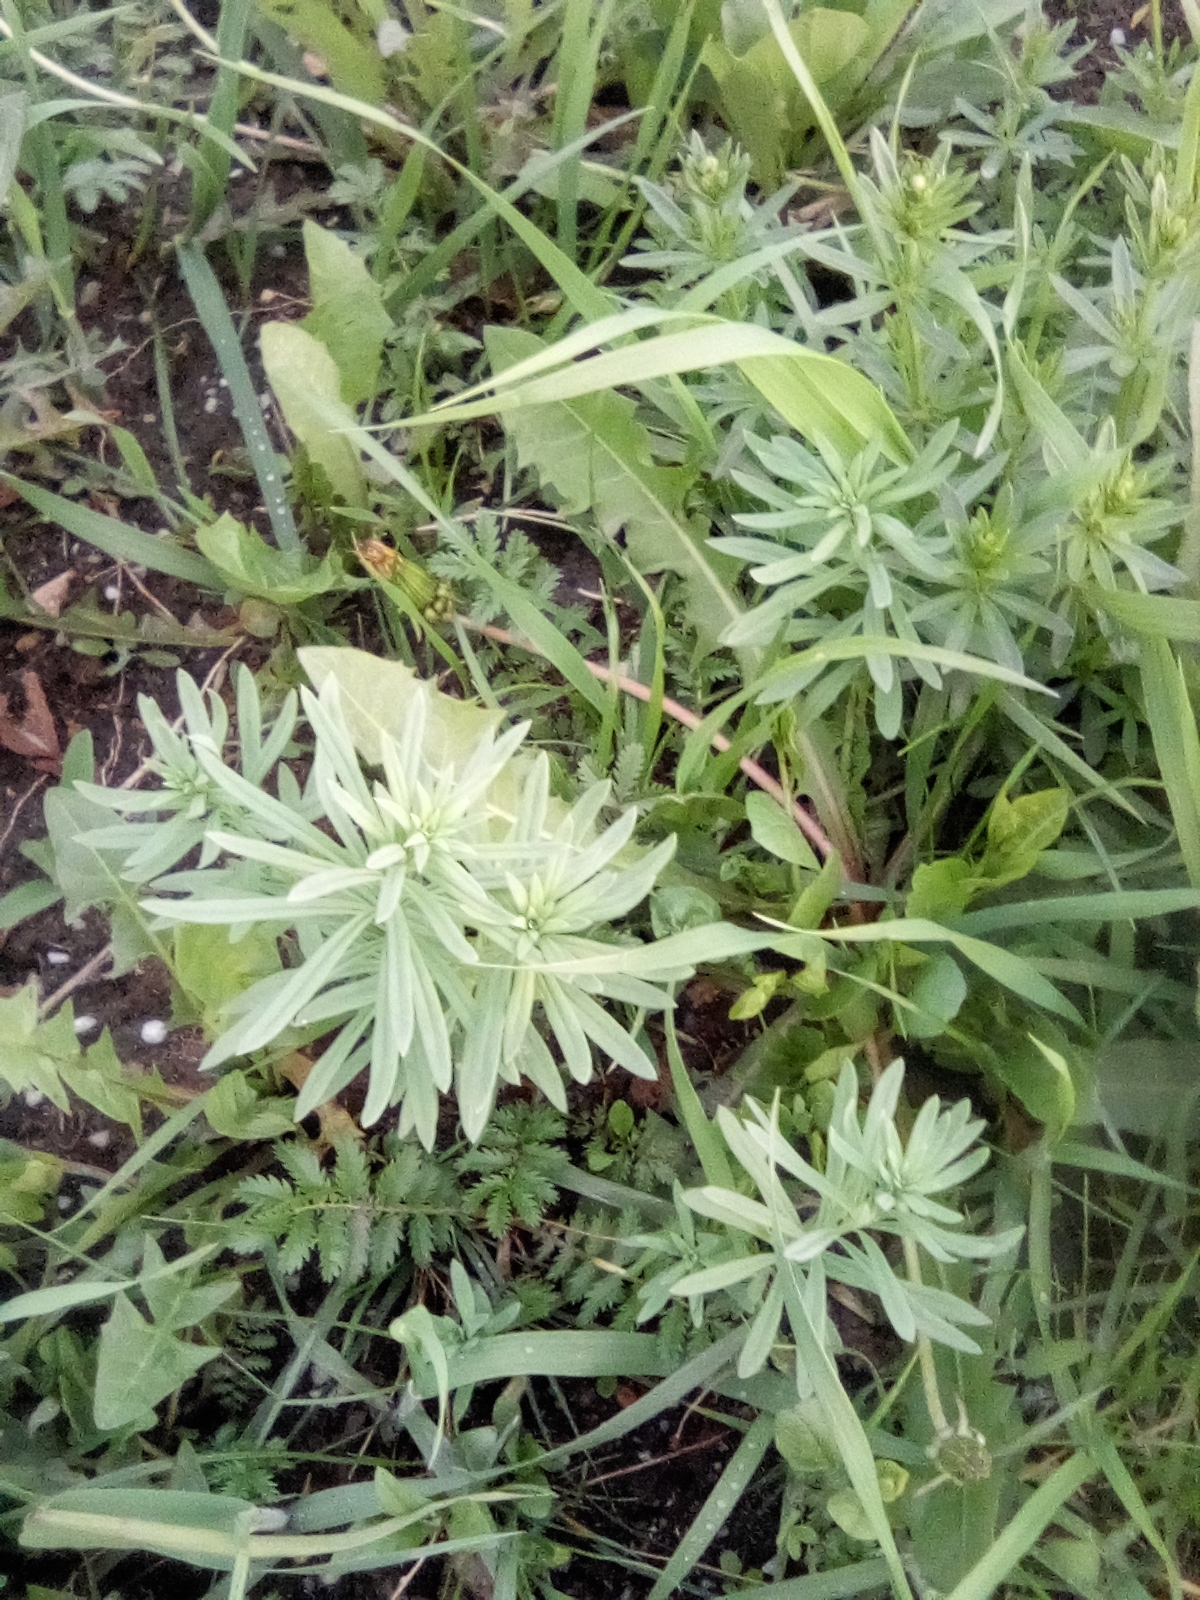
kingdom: Plantae
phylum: Tracheophyta
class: Magnoliopsida
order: Lamiales
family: Plantaginaceae
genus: Linaria
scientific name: Linaria vulgaris
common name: Butter and eggs
